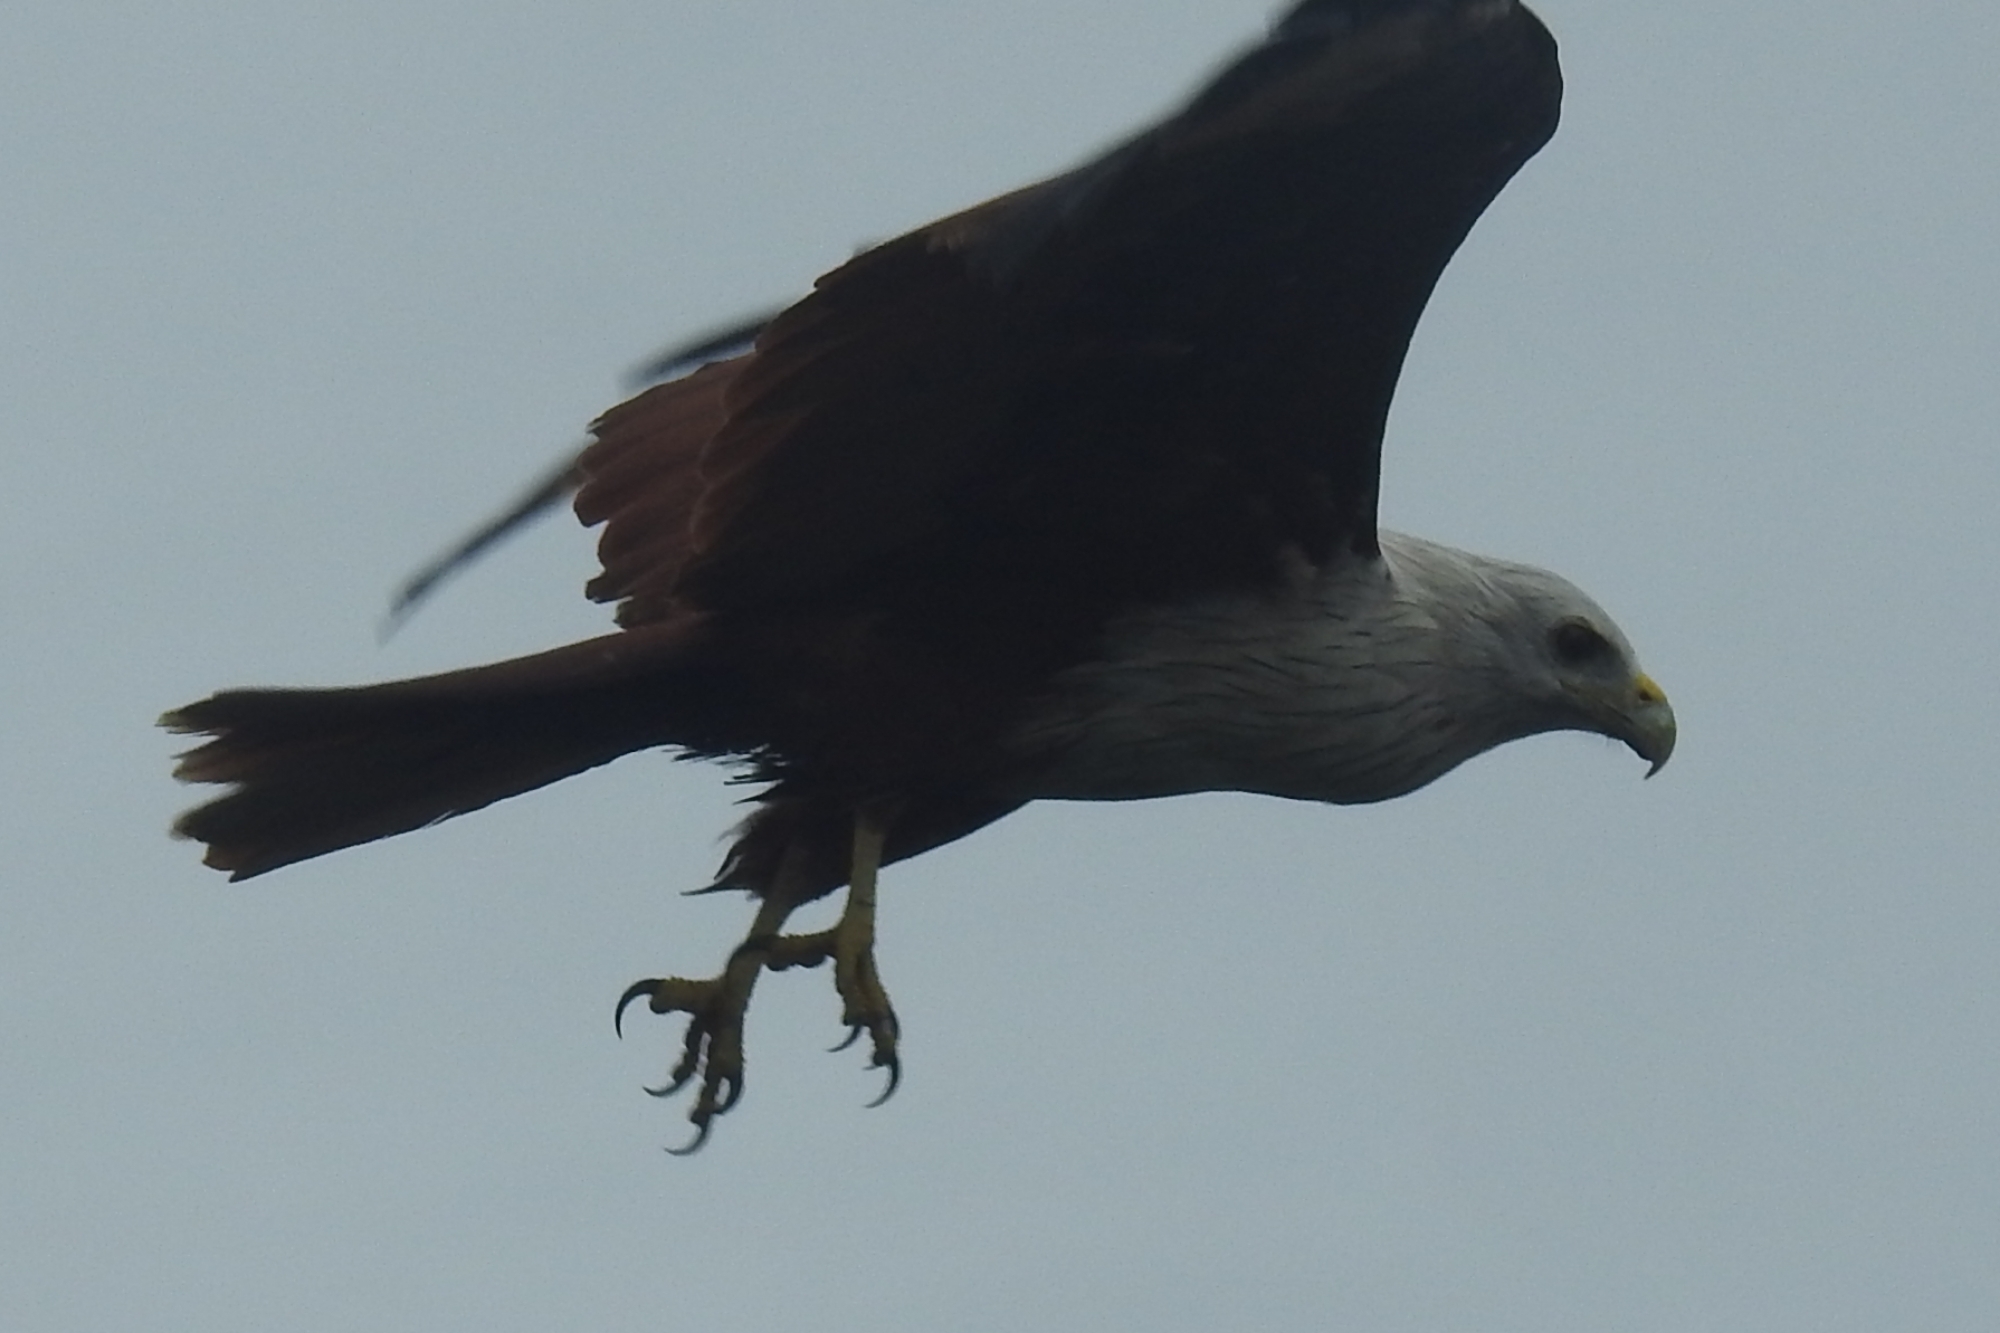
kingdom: Animalia
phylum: Chordata
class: Aves
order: Accipitriformes
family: Accipitridae
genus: Haliastur
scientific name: Haliastur indus
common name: Brahminy kite
